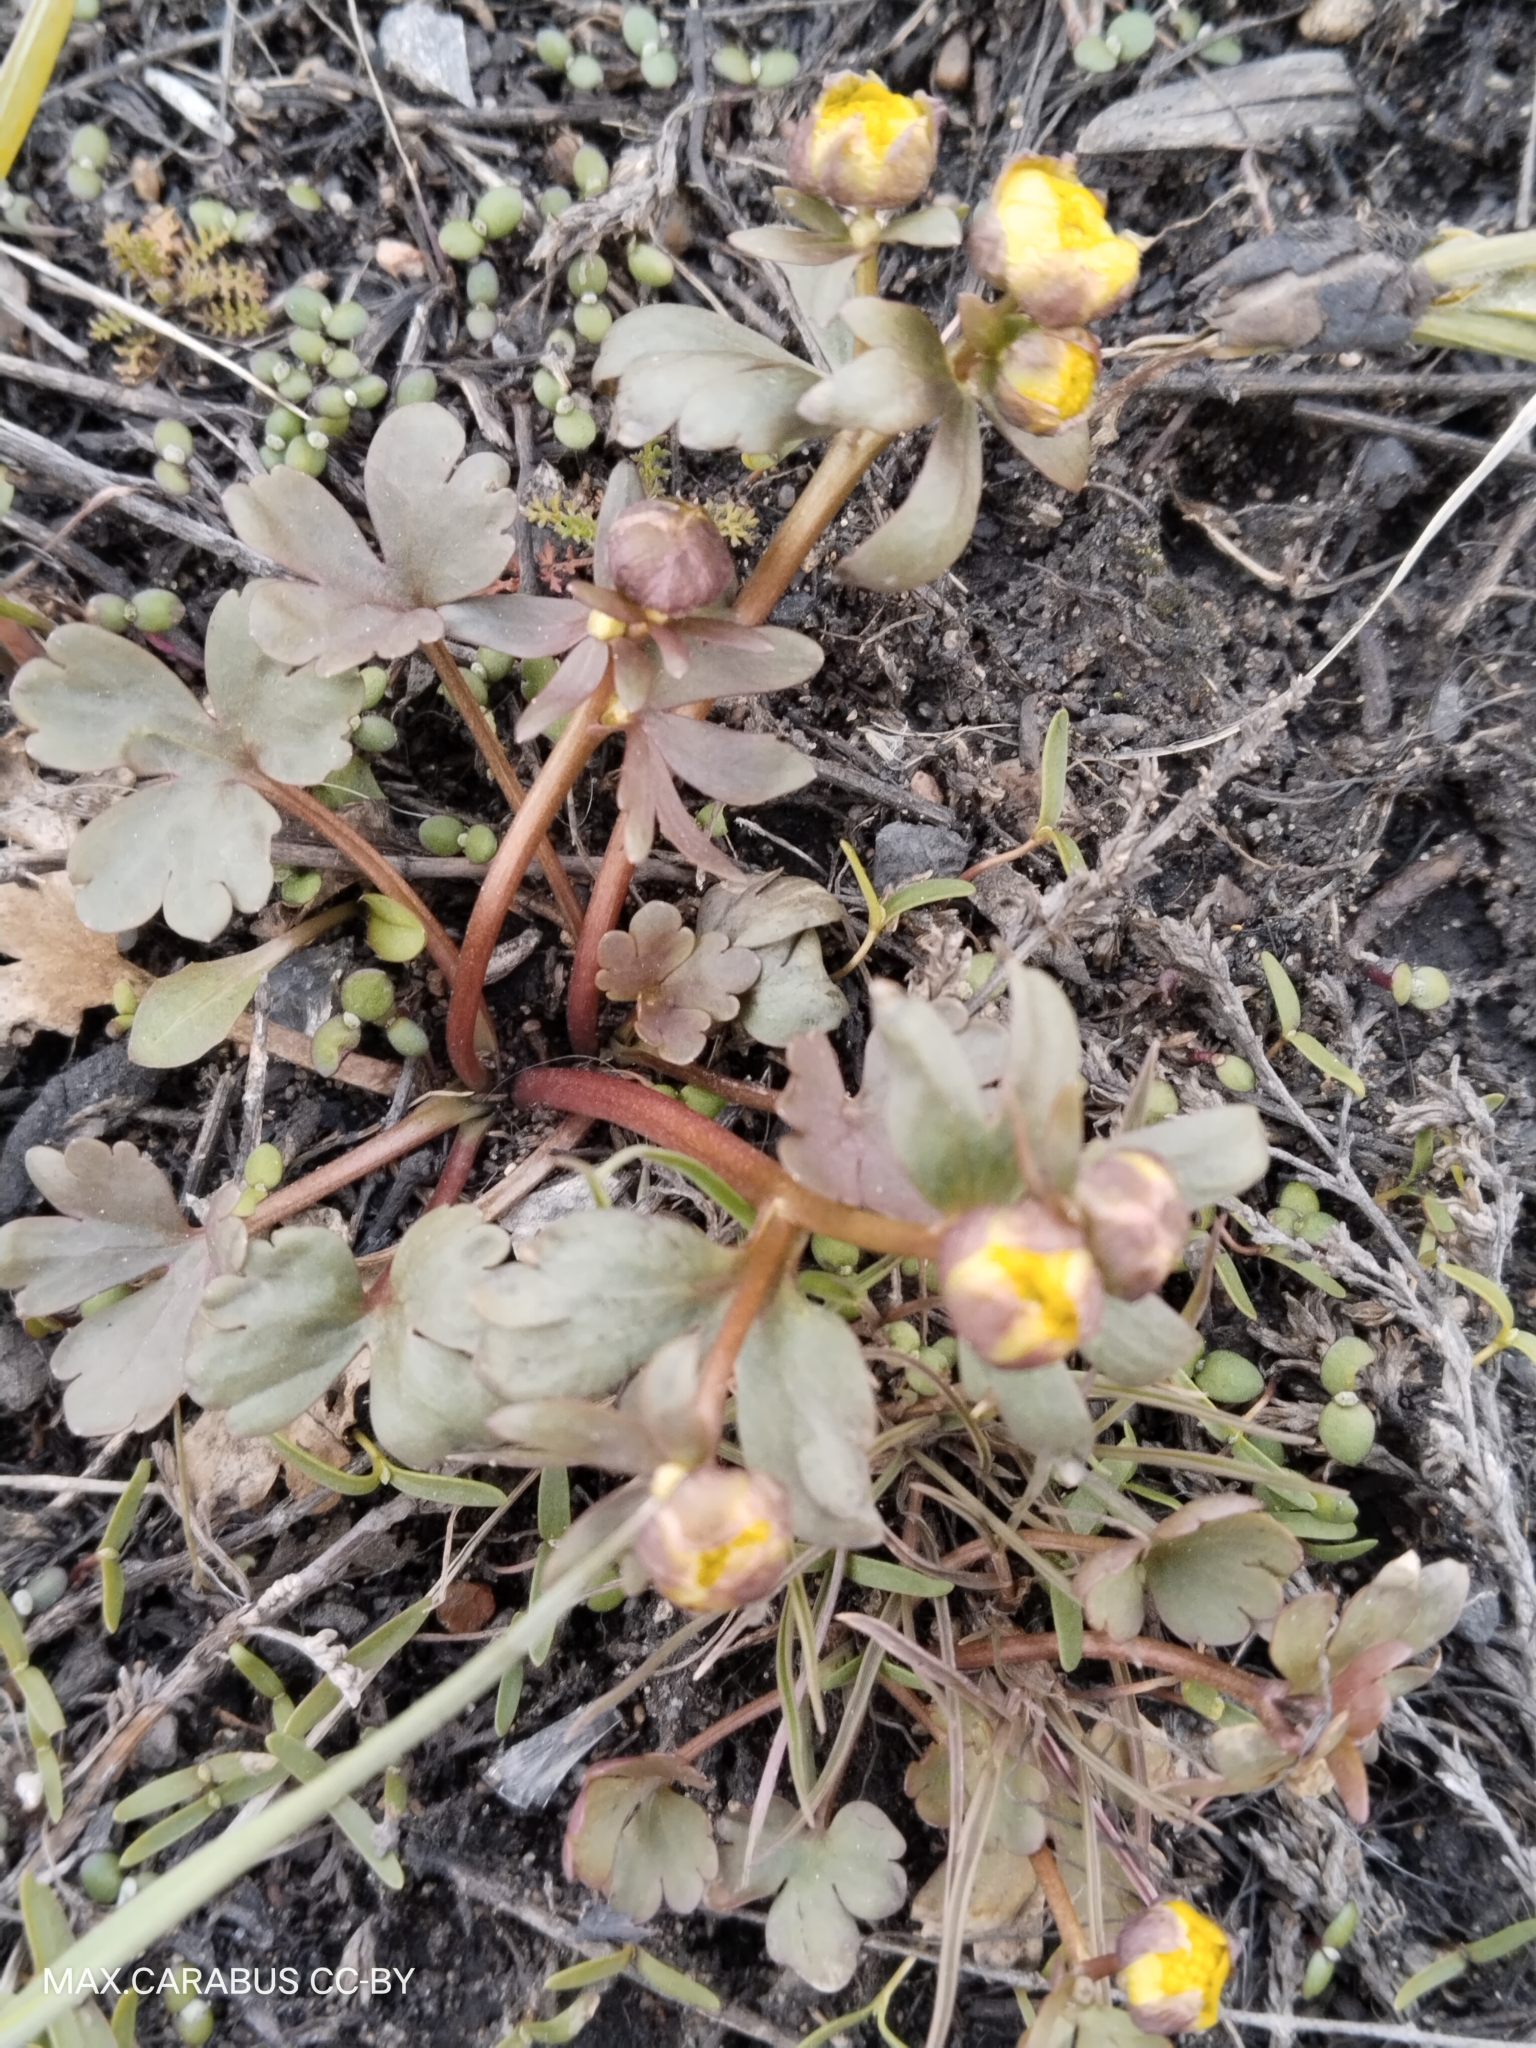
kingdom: Plantae
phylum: Tracheophyta
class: Magnoliopsida
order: Ranunculales
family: Ranunculaceae
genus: Ranunculus
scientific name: Ranunculus polyrhizos
